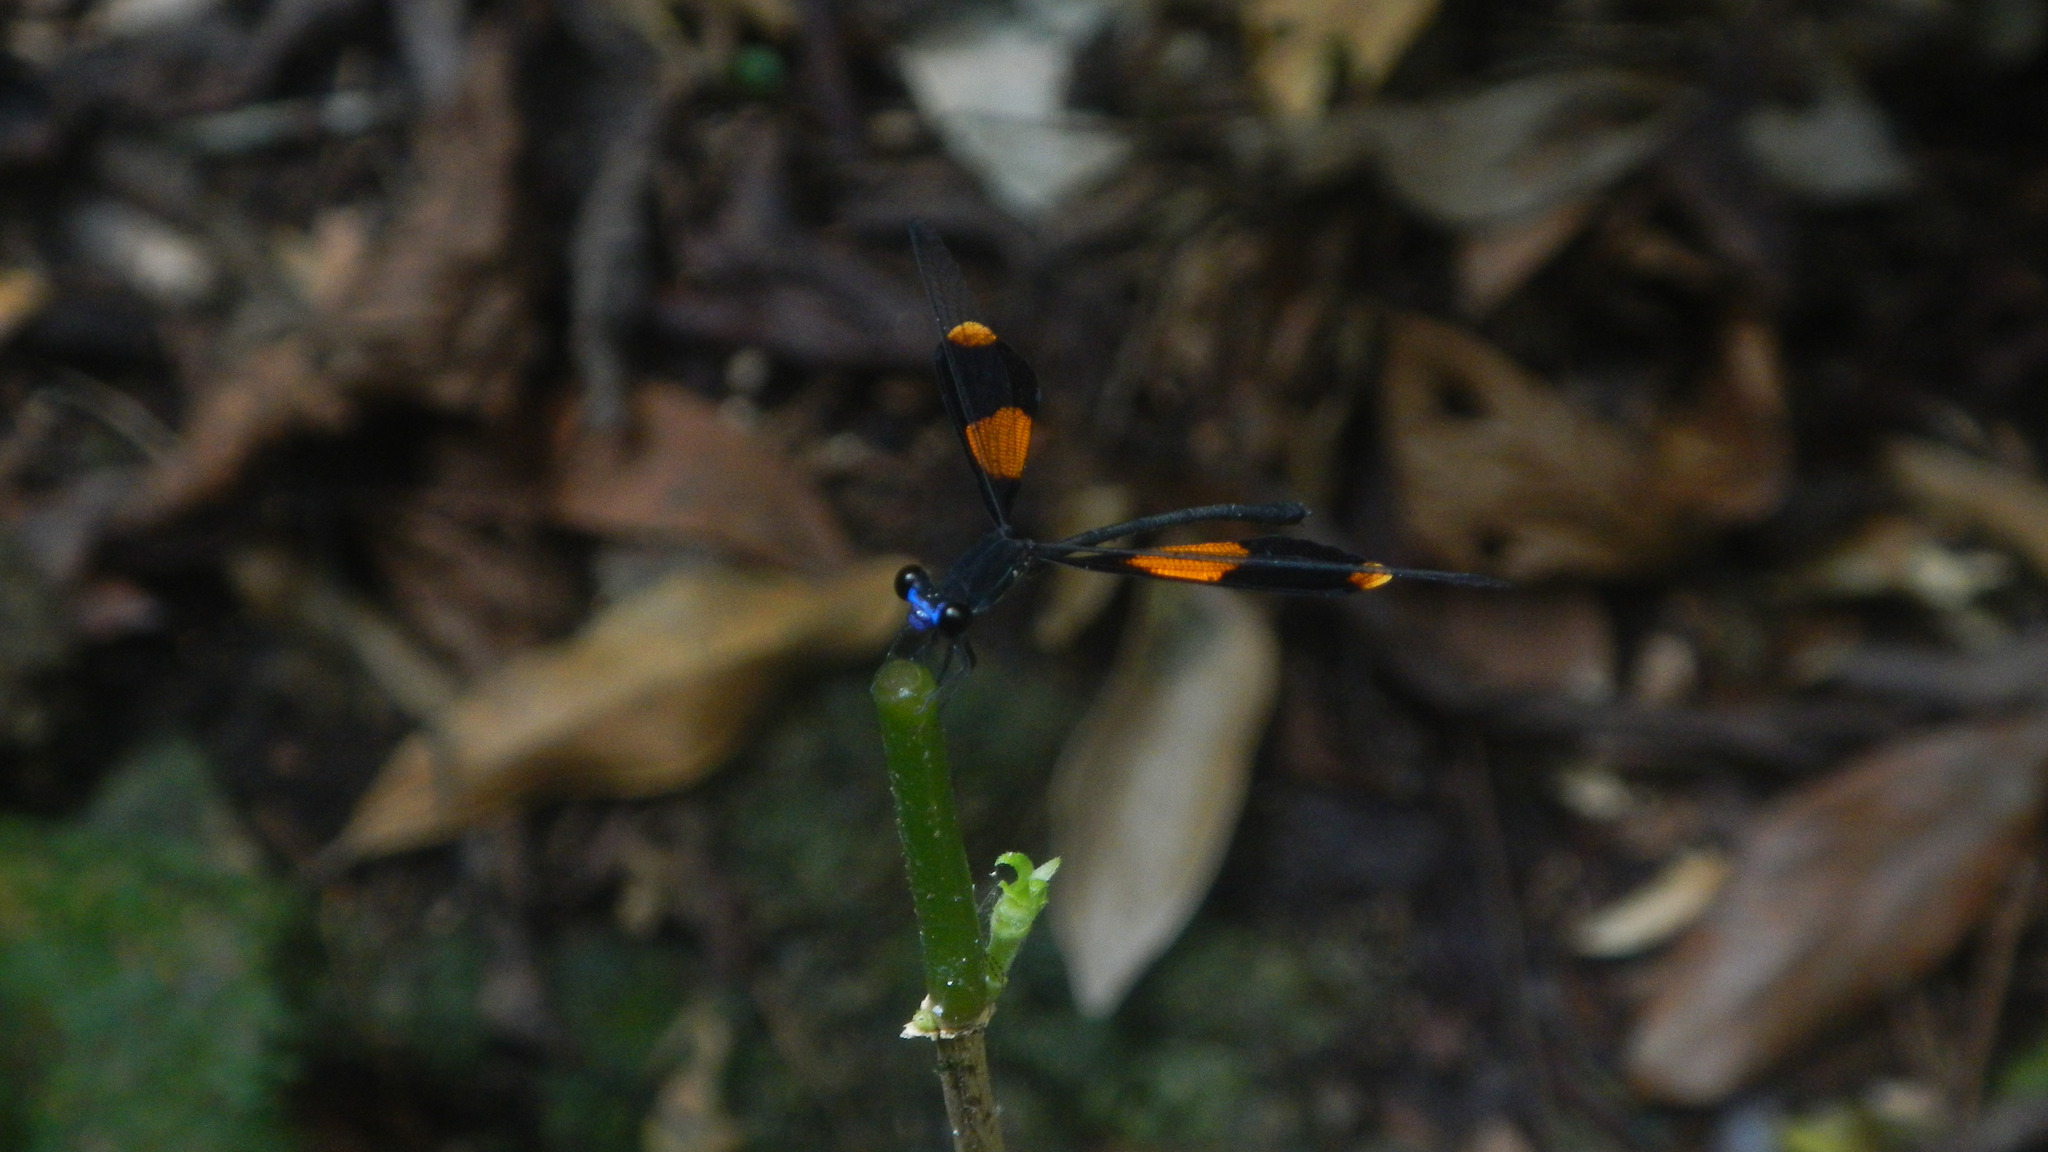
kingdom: Animalia
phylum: Arthropoda
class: Insecta
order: Odonata
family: Pseudolestidae
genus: Pseudolestes
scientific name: Pseudolestes mirabilis
